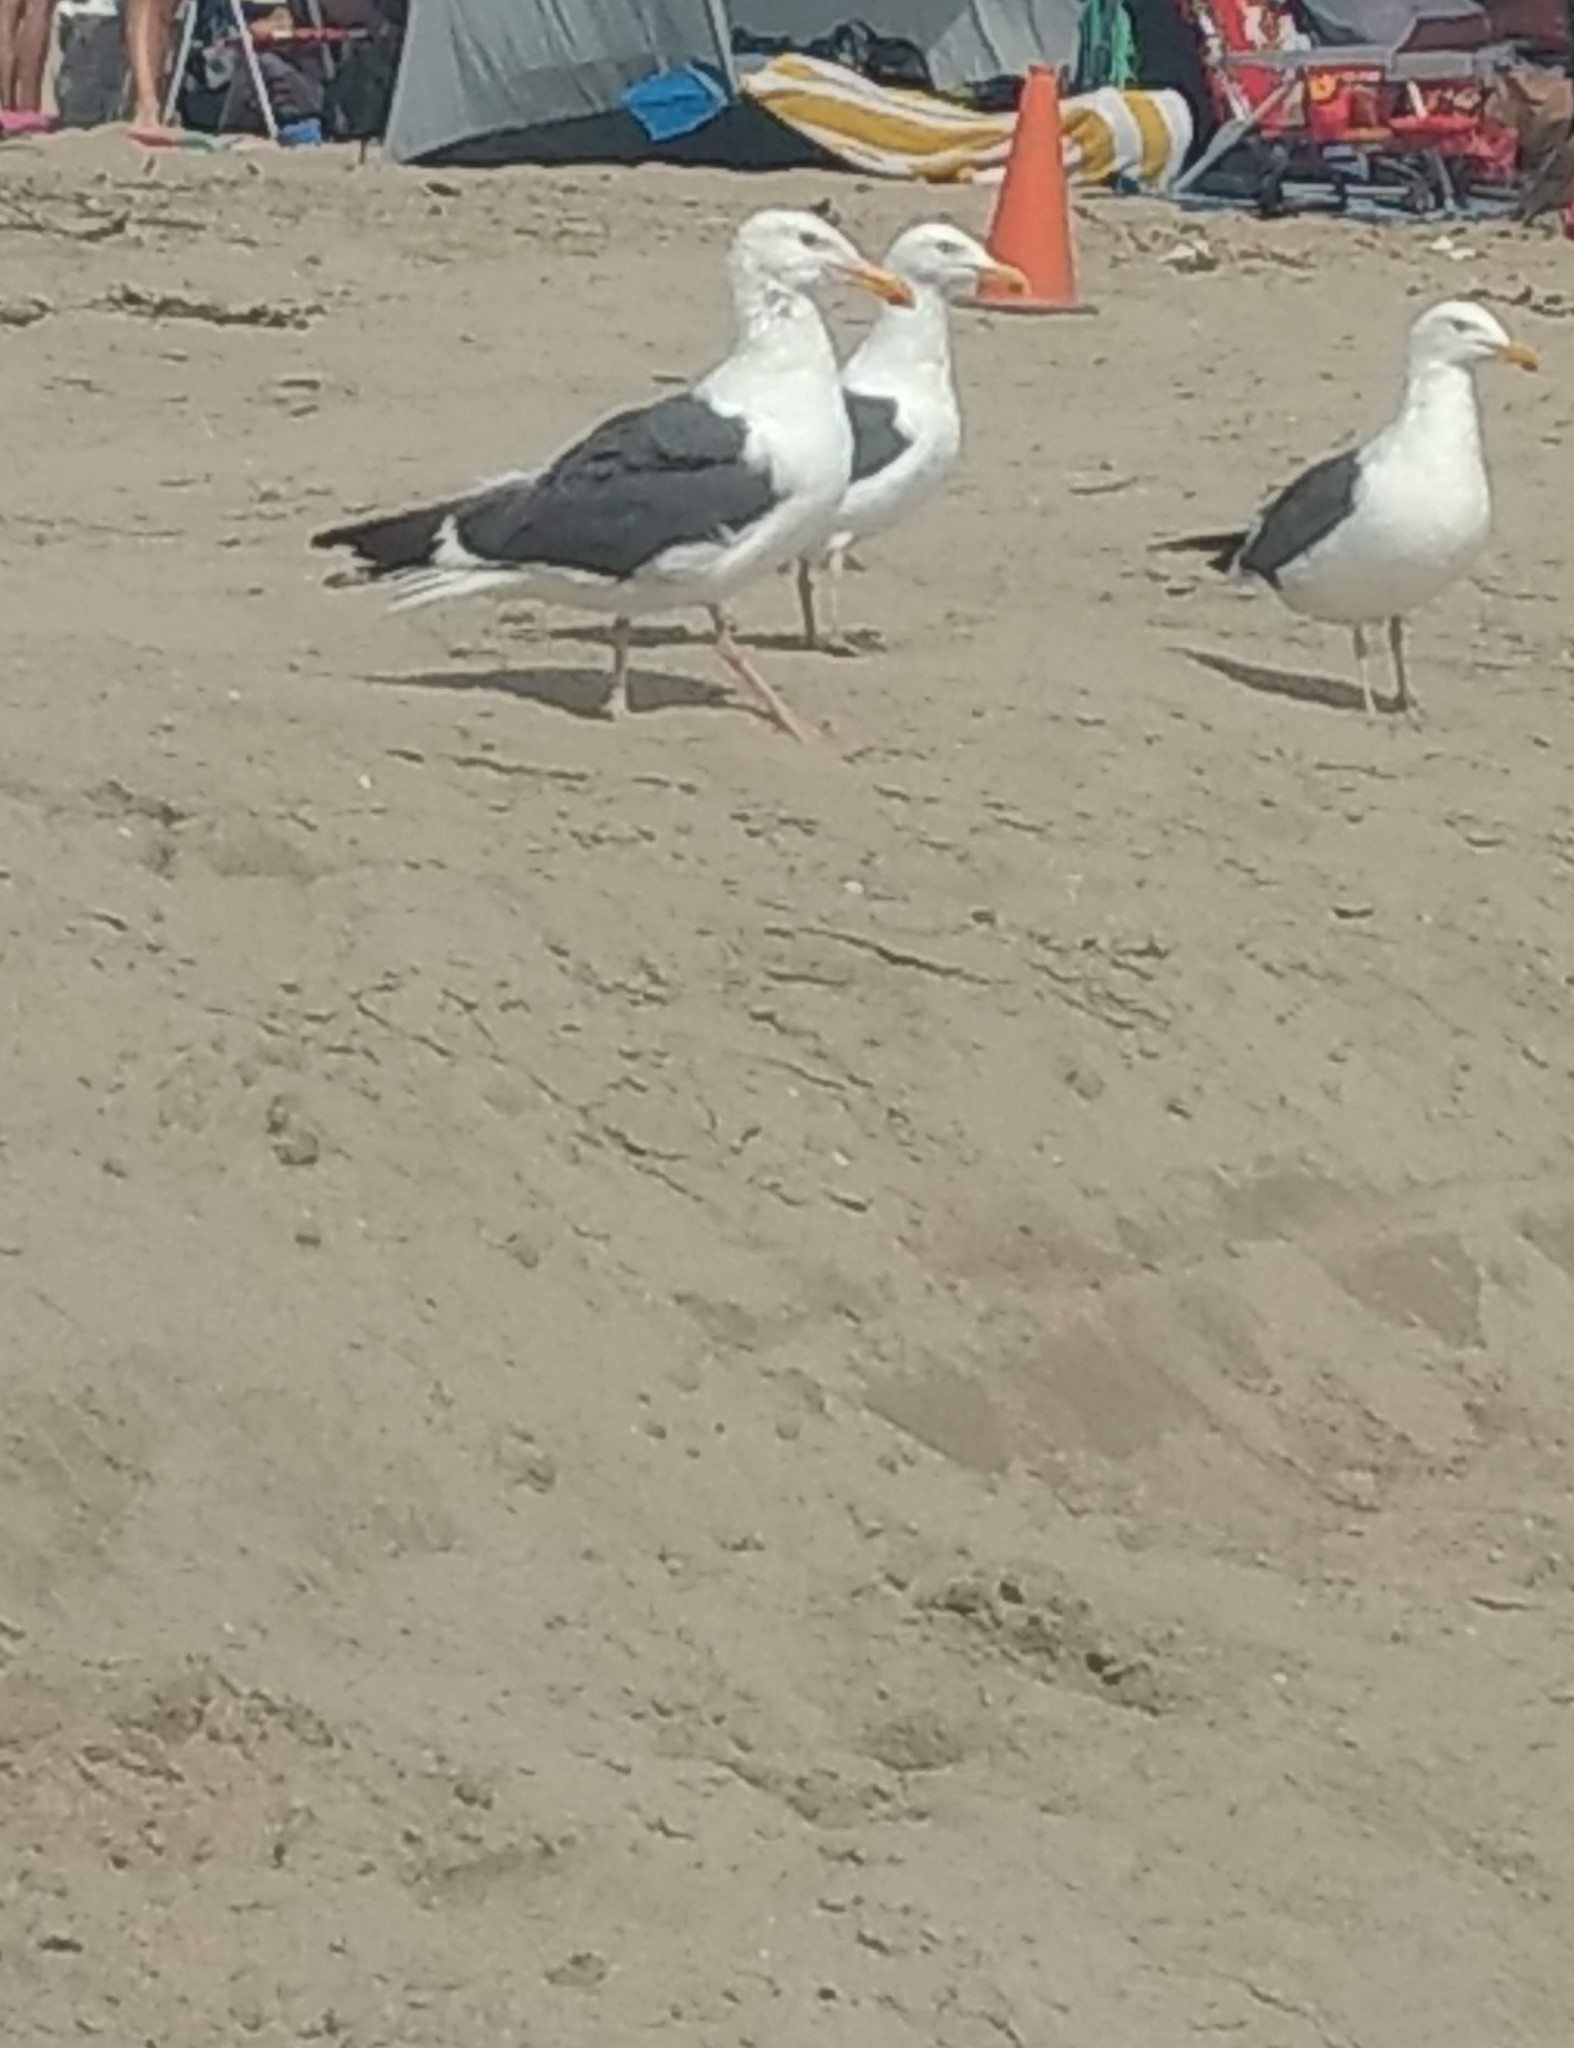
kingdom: Animalia
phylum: Chordata
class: Aves
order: Charadriiformes
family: Laridae
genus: Larus
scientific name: Larus occidentalis
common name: Western gull
